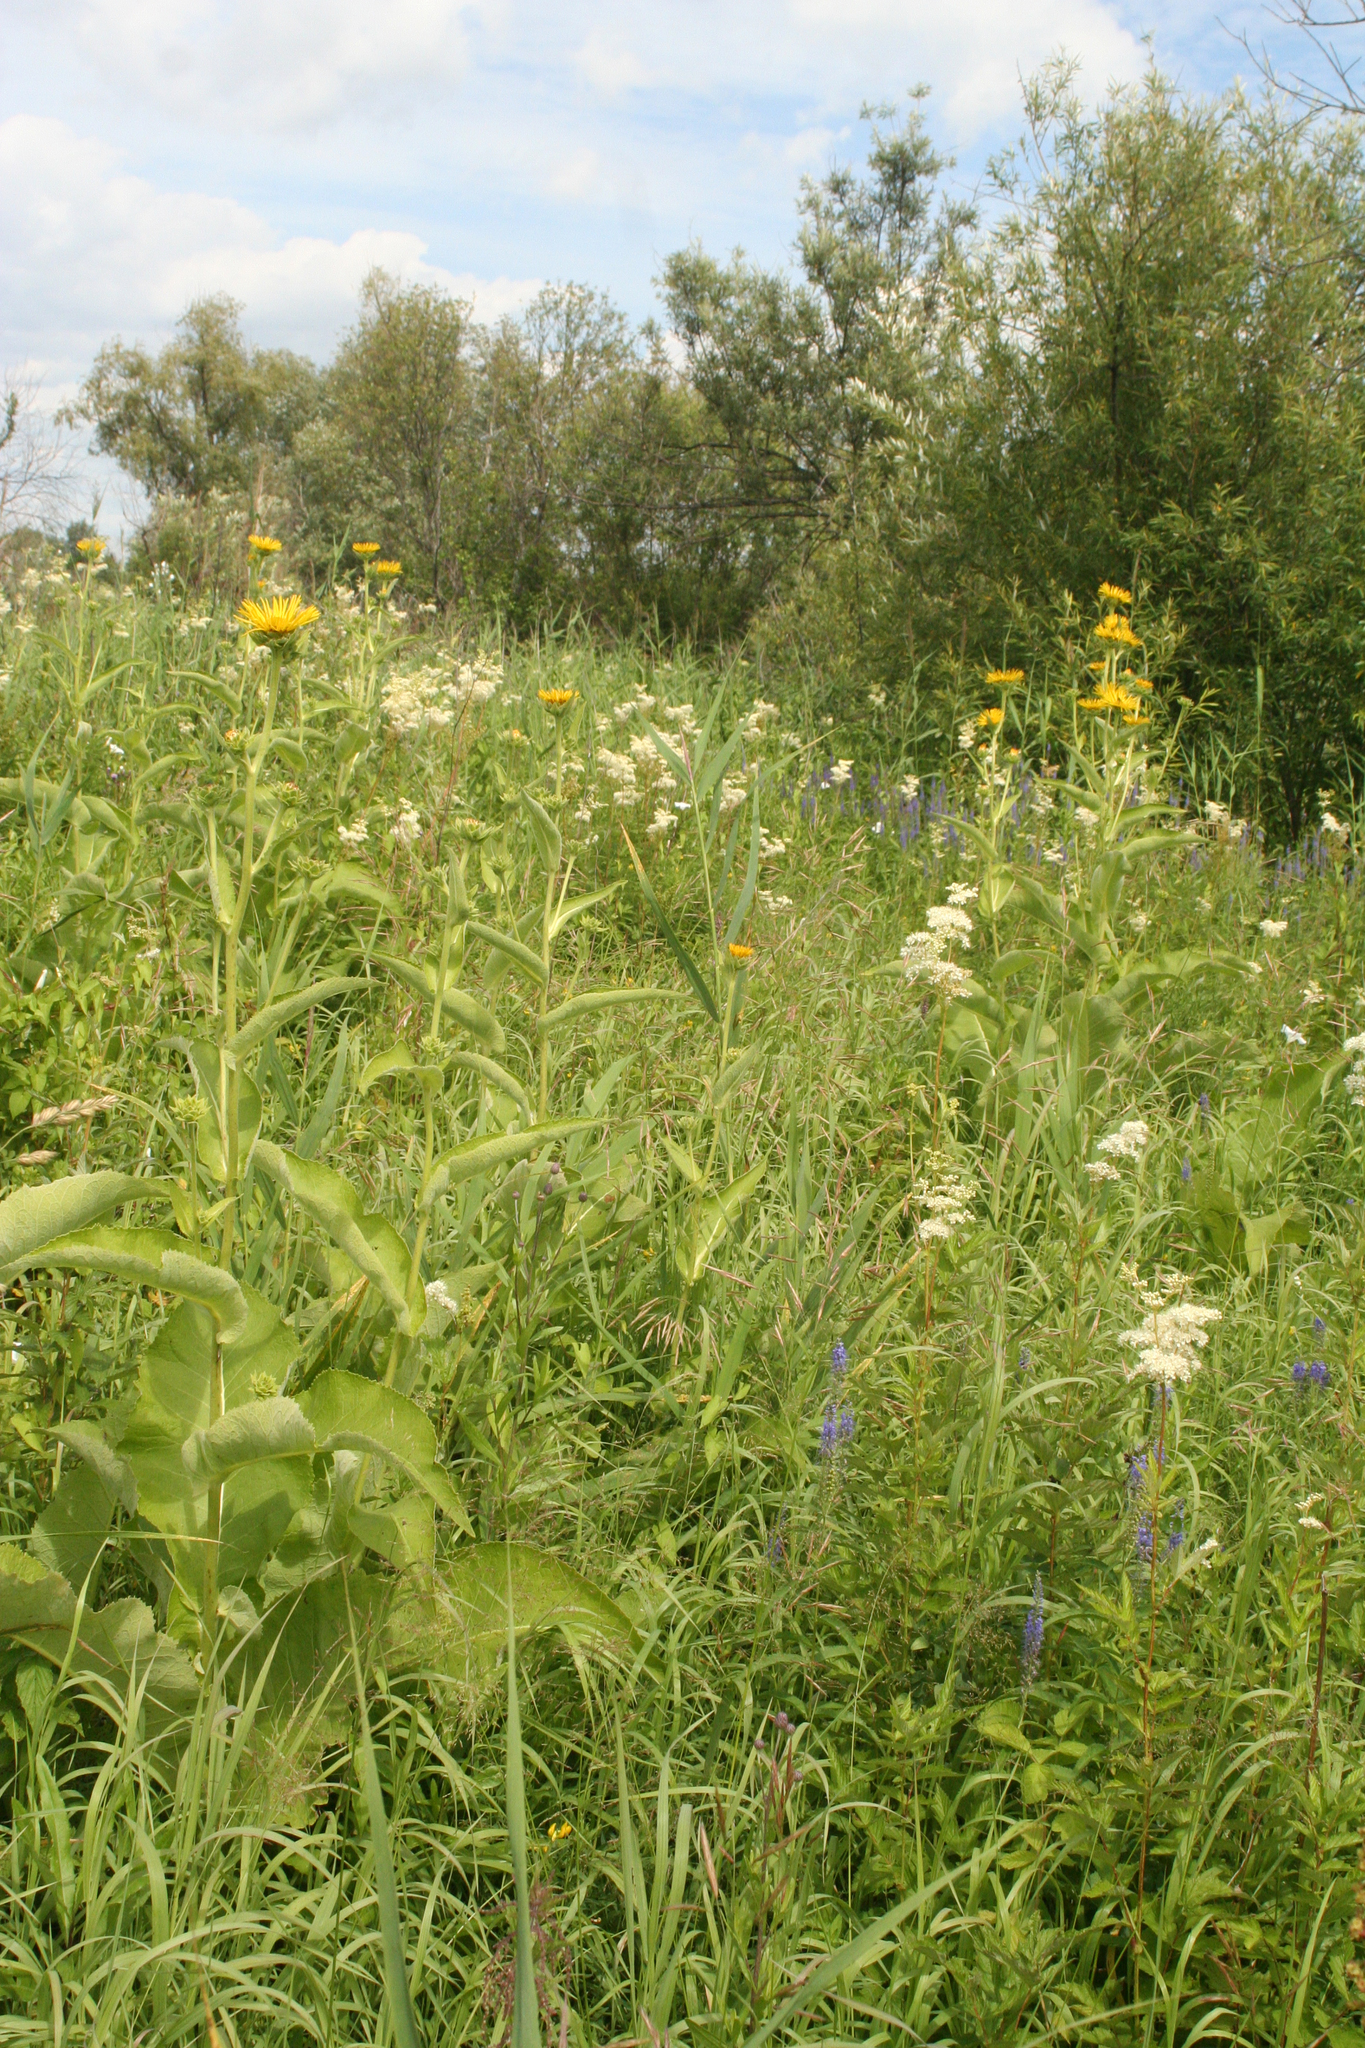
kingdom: Plantae
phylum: Tracheophyta
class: Magnoliopsida
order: Asterales
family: Asteraceae
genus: Inula
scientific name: Inula helenium
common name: Elecampane
